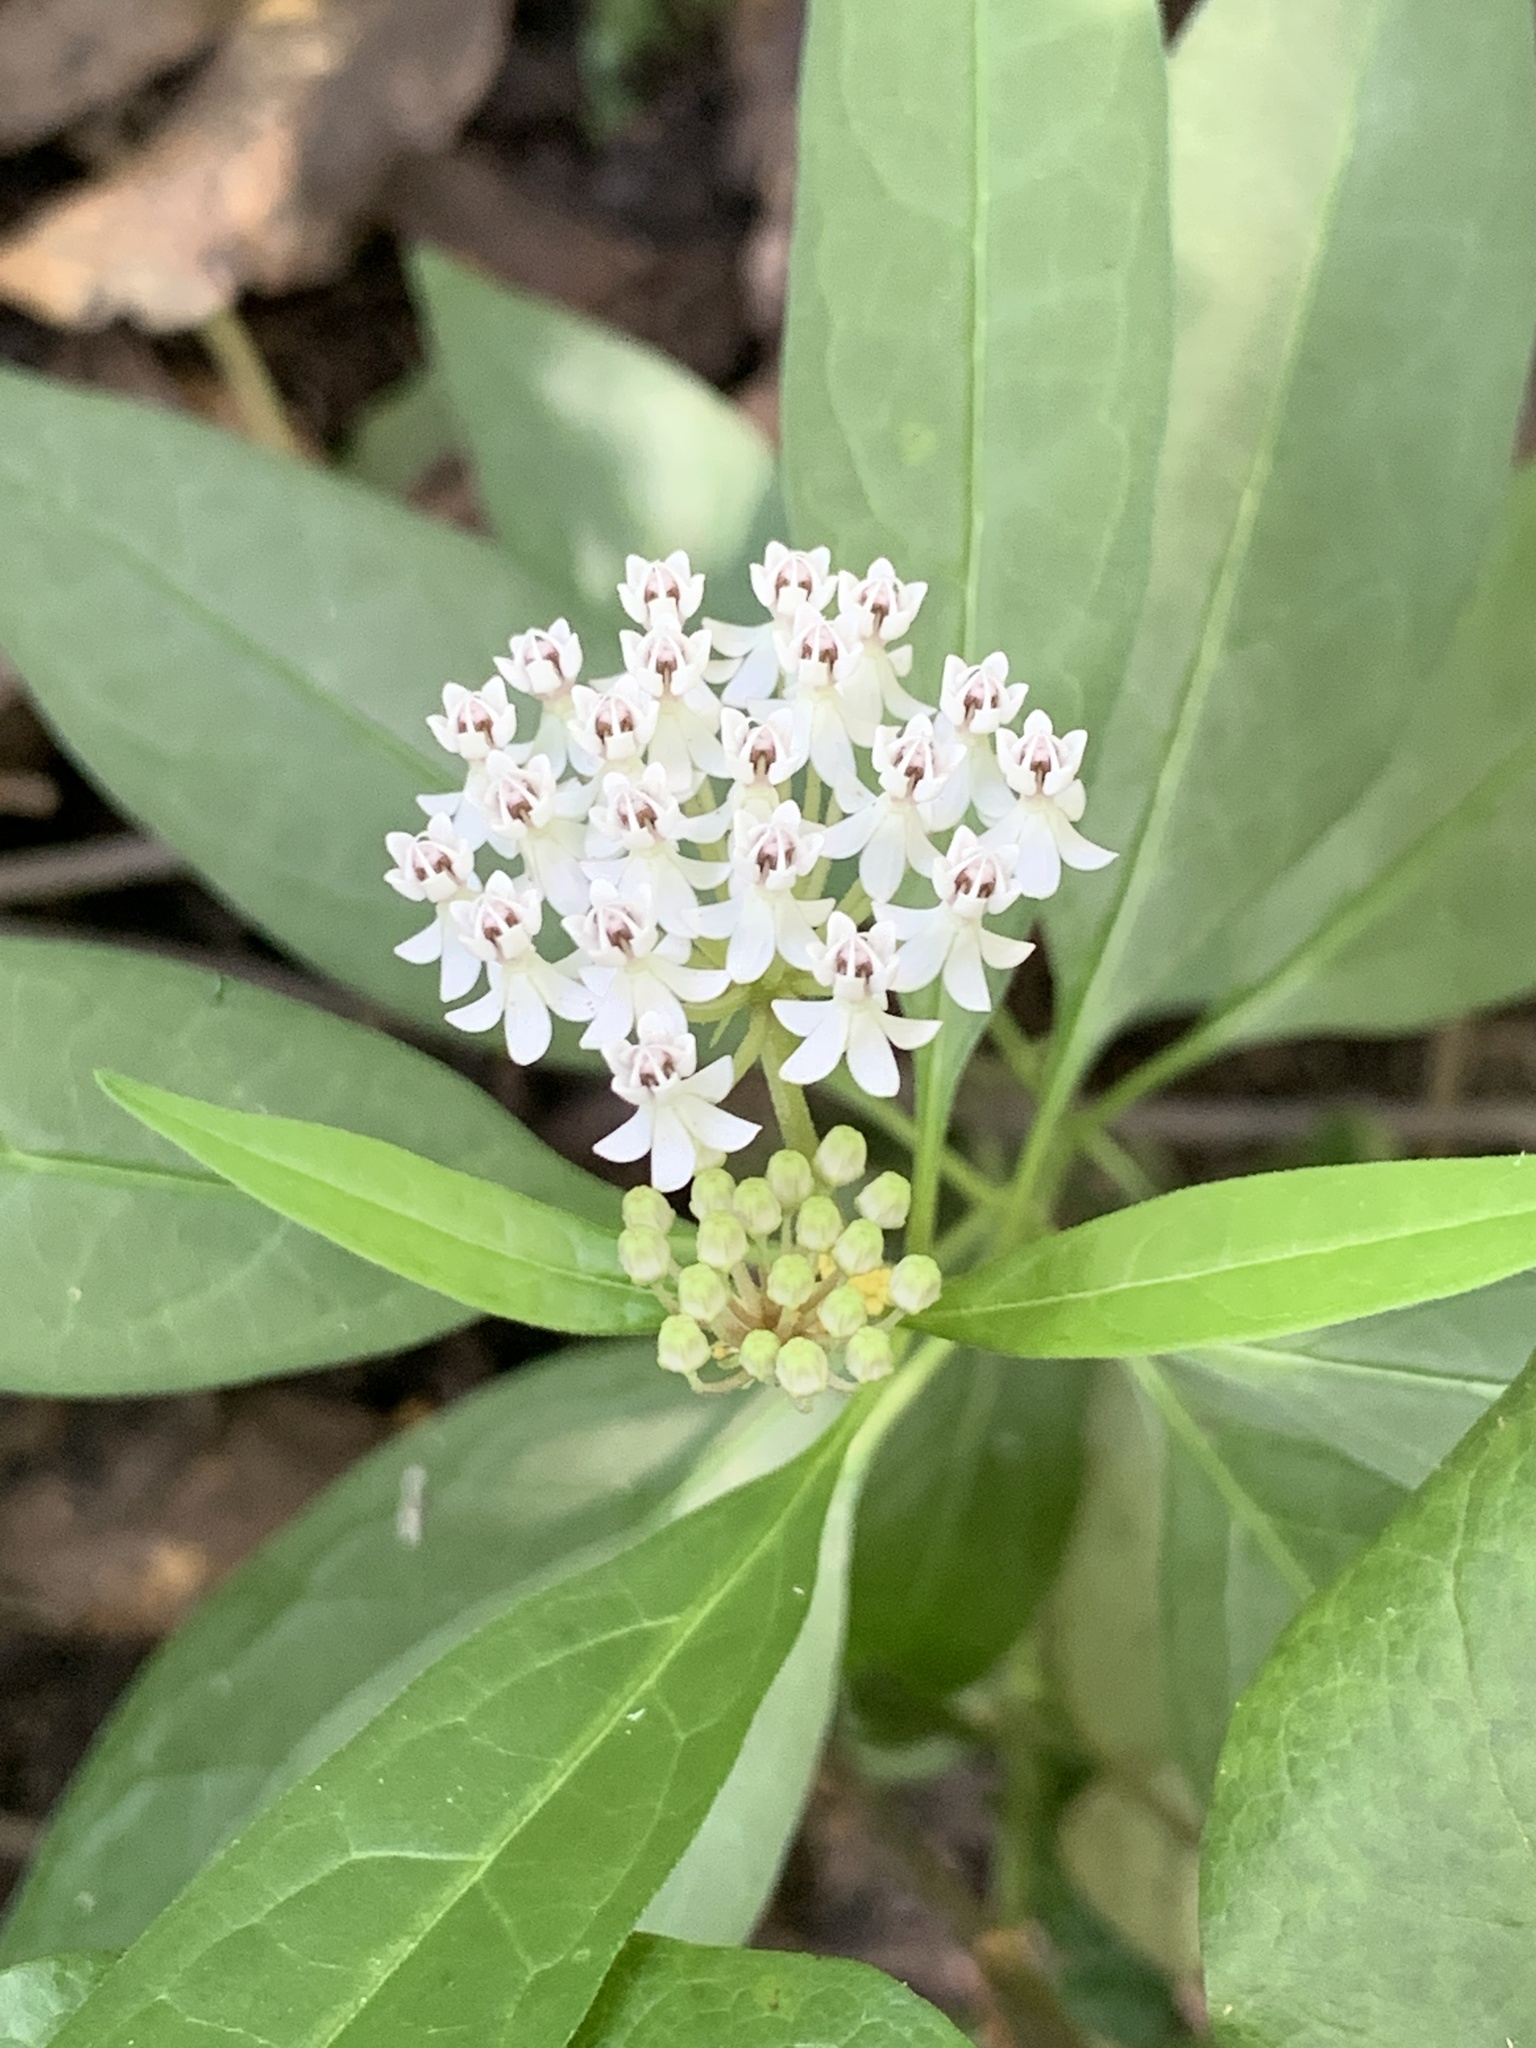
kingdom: Plantae
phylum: Tracheophyta
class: Magnoliopsida
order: Gentianales
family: Apocynaceae
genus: Asclepias
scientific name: Asclepias perennis
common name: Smooth-seed milkweed
